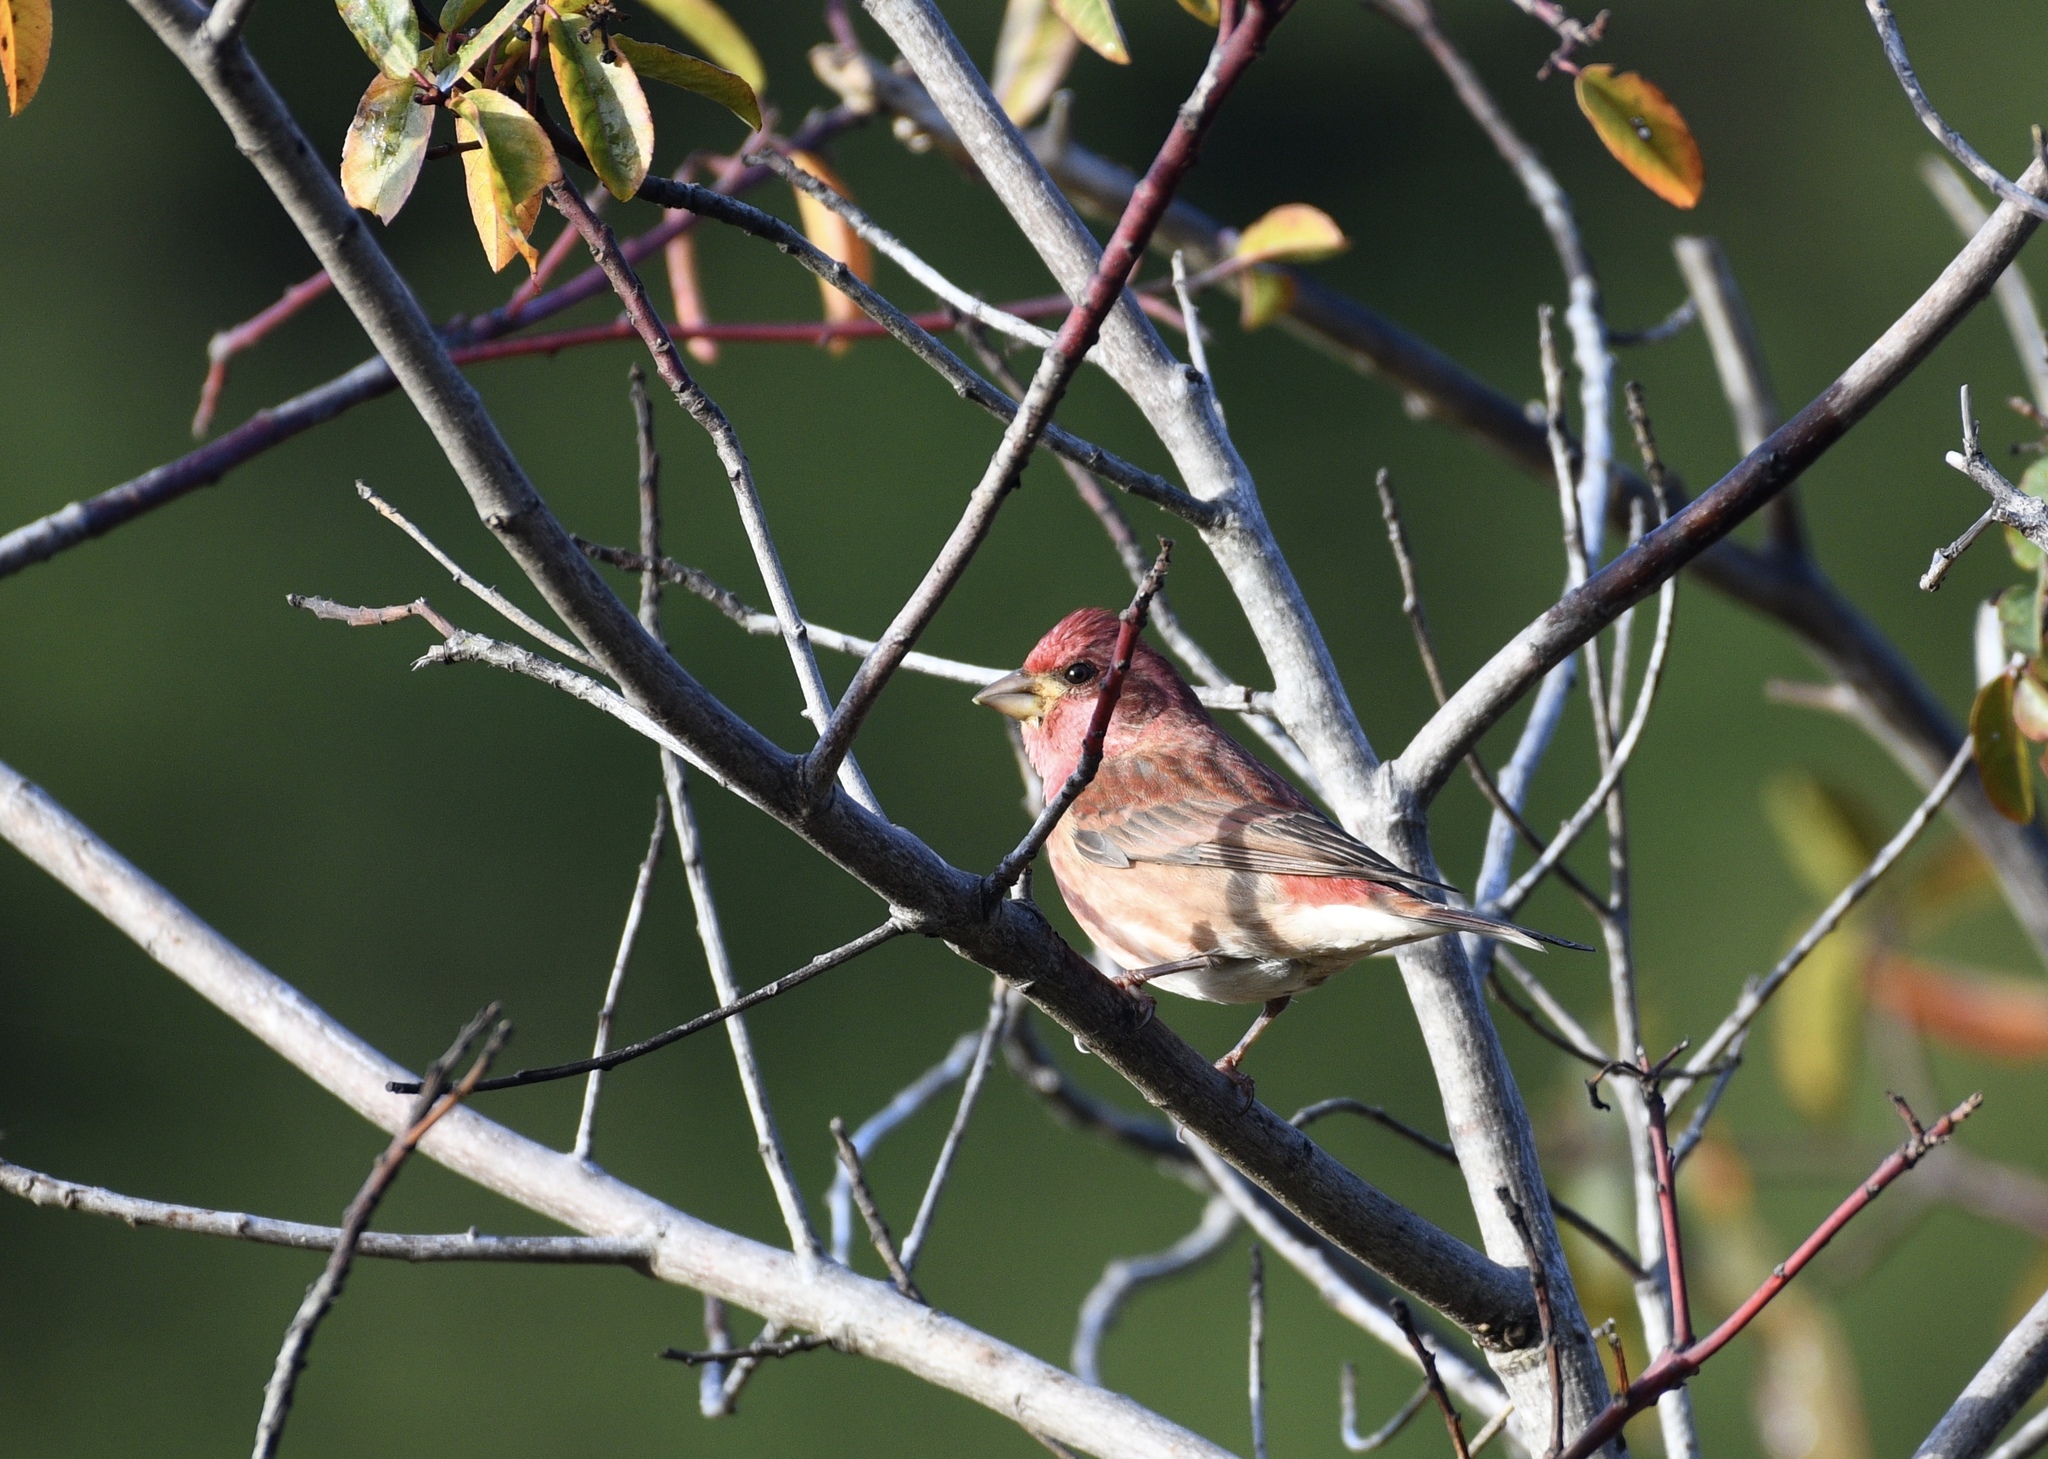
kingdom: Animalia
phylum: Chordata
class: Aves
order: Passeriformes
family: Fringillidae
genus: Haemorhous
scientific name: Haemorhous purpureus
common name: Purple finch
